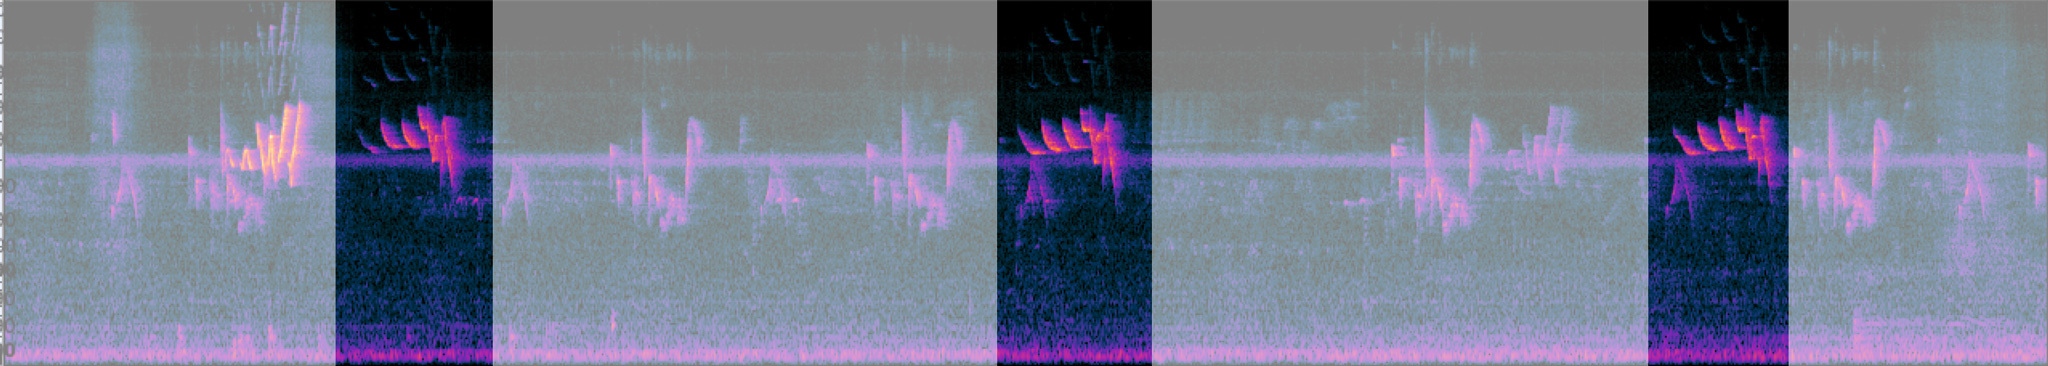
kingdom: Animalia
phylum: Chordata
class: Aves
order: Passeriformes
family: Parulidae
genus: Limnothlypis
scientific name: Limnothlypis swainsonii
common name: Swainson's warbler
